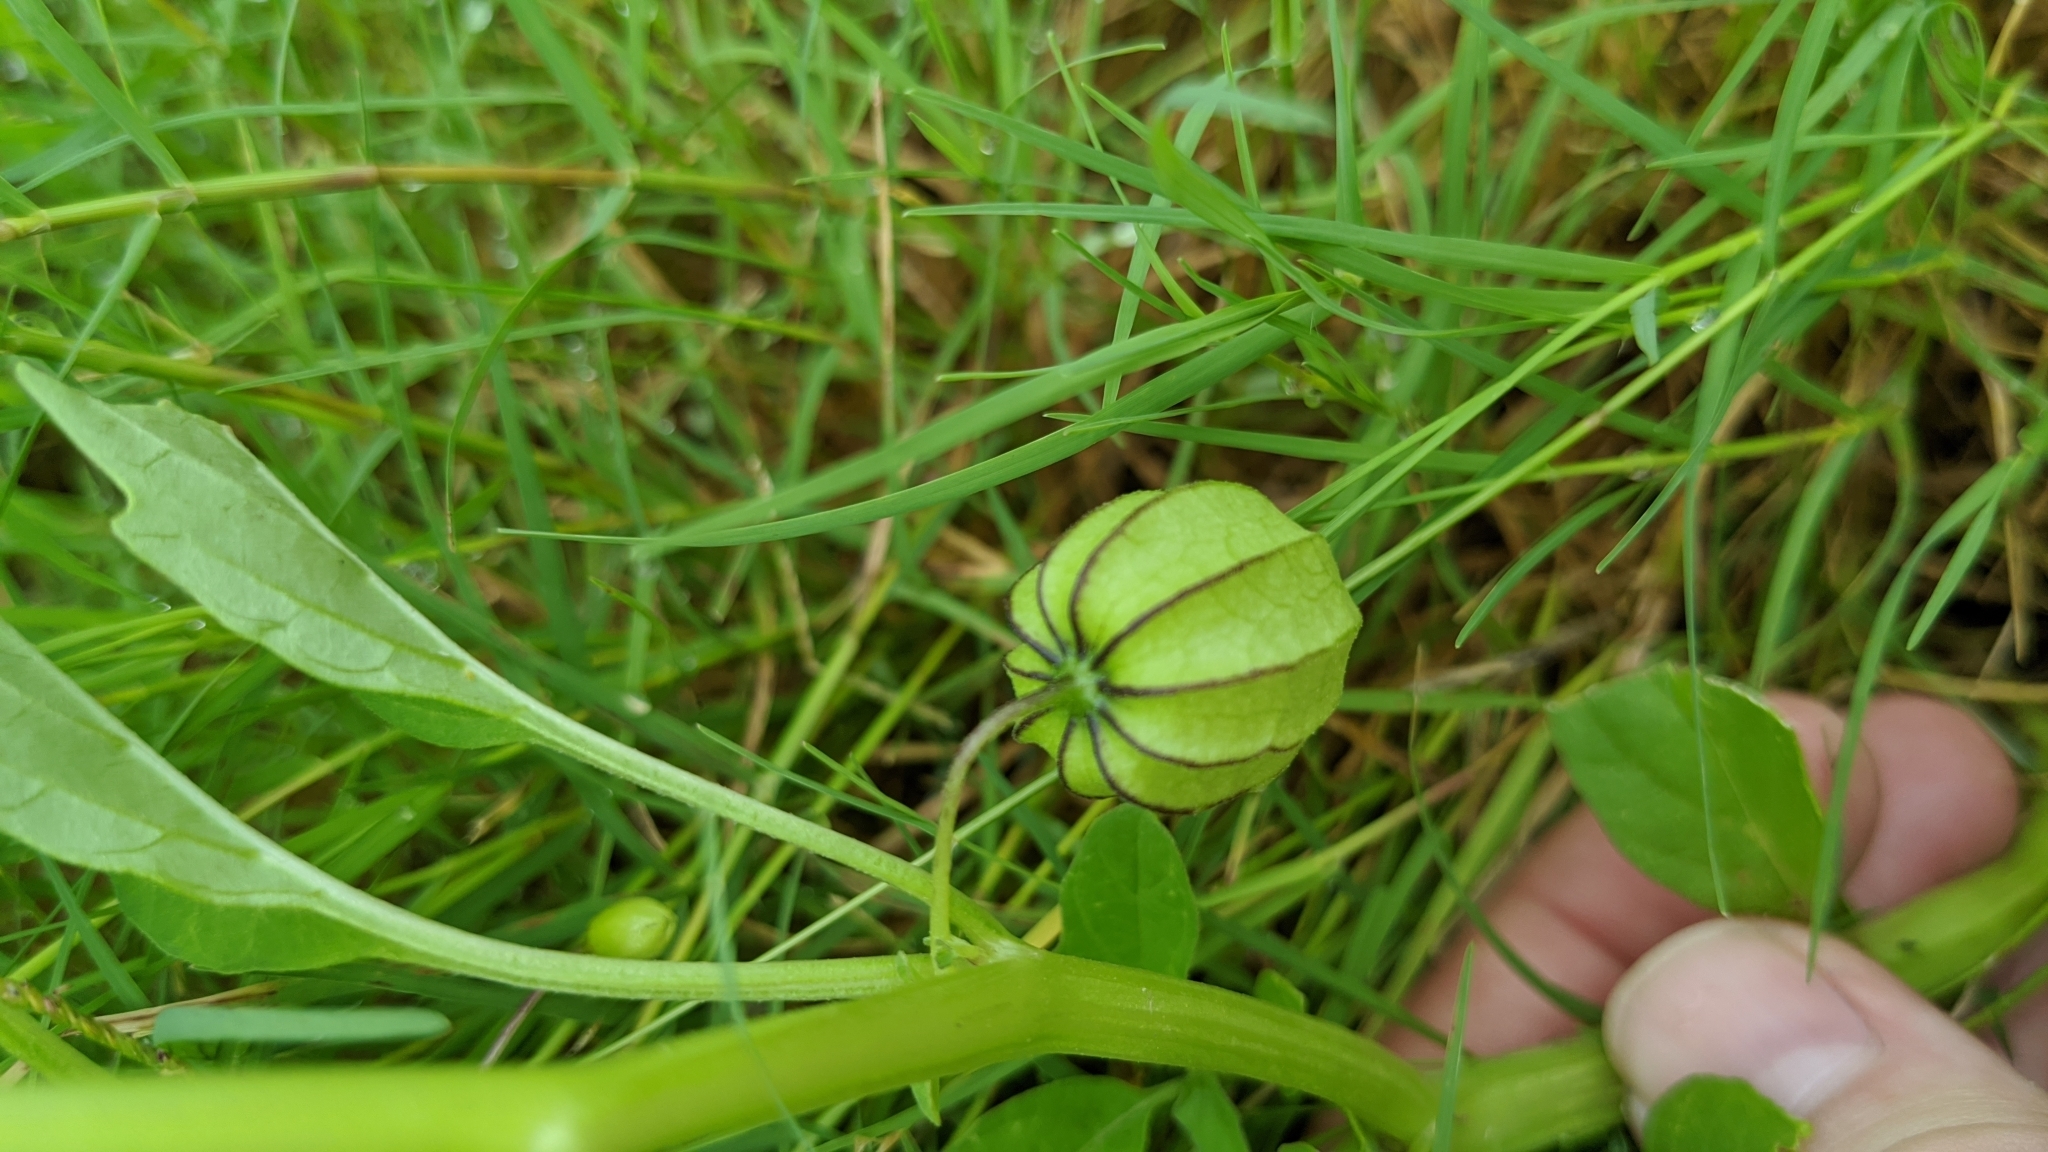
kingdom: Plantae
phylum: Tracheophyta
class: Magnoliopsida
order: Solanales
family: Solanaceae
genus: Physalis
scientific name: Physalis angulata
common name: Angular winter-cherry
